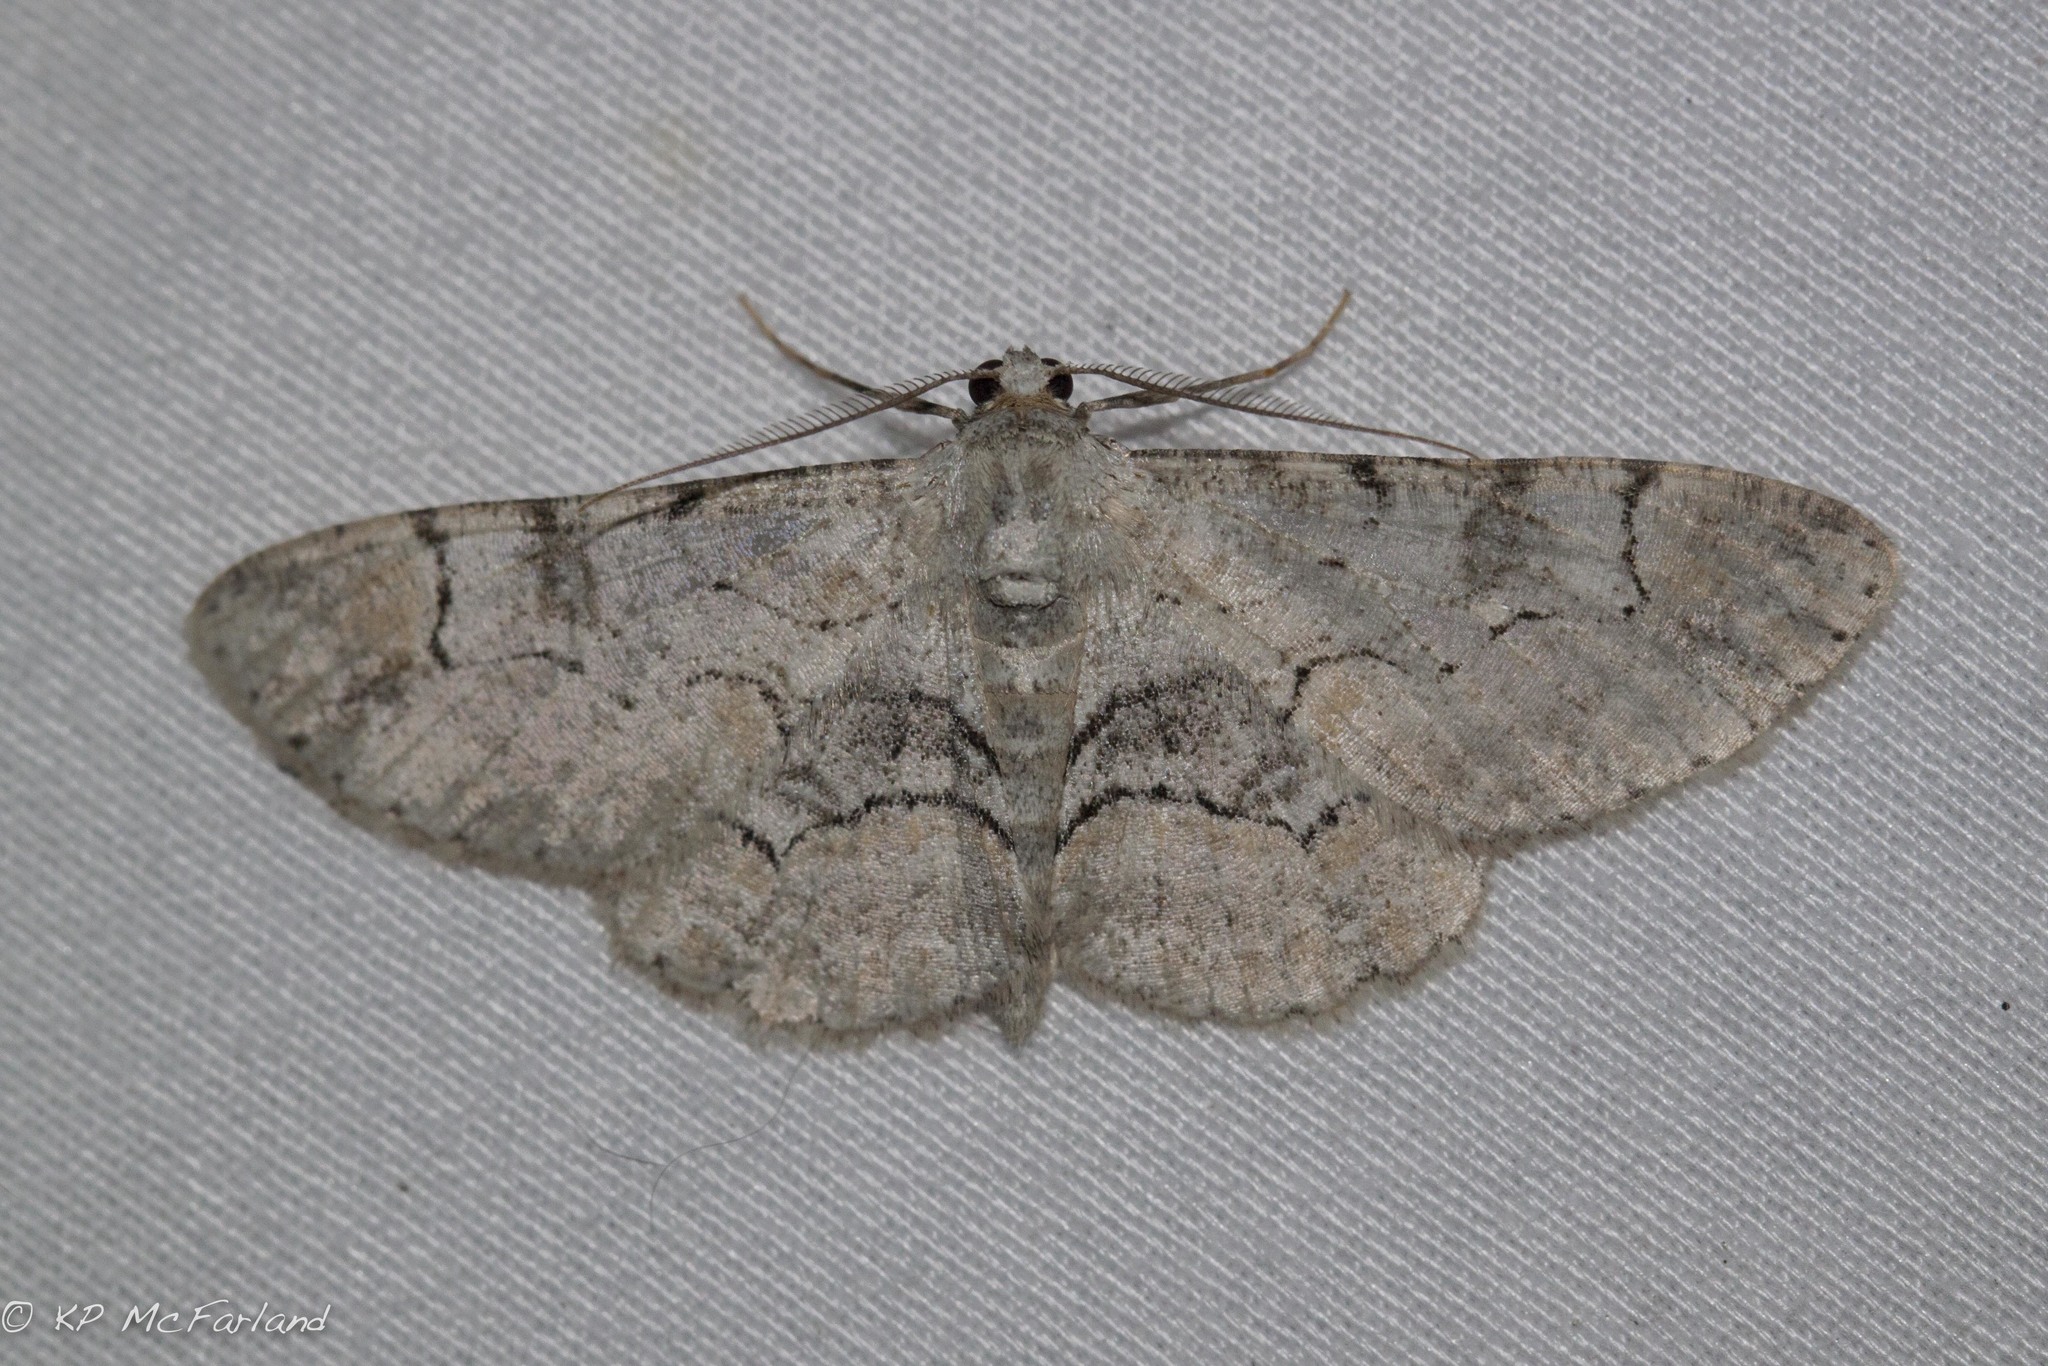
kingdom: Animalia
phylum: Arthropoda
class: Insecta
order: Lepidoptera
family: Geometridae
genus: Iridopsis
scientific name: Iridopsis larvaria
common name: Bent-line gray
